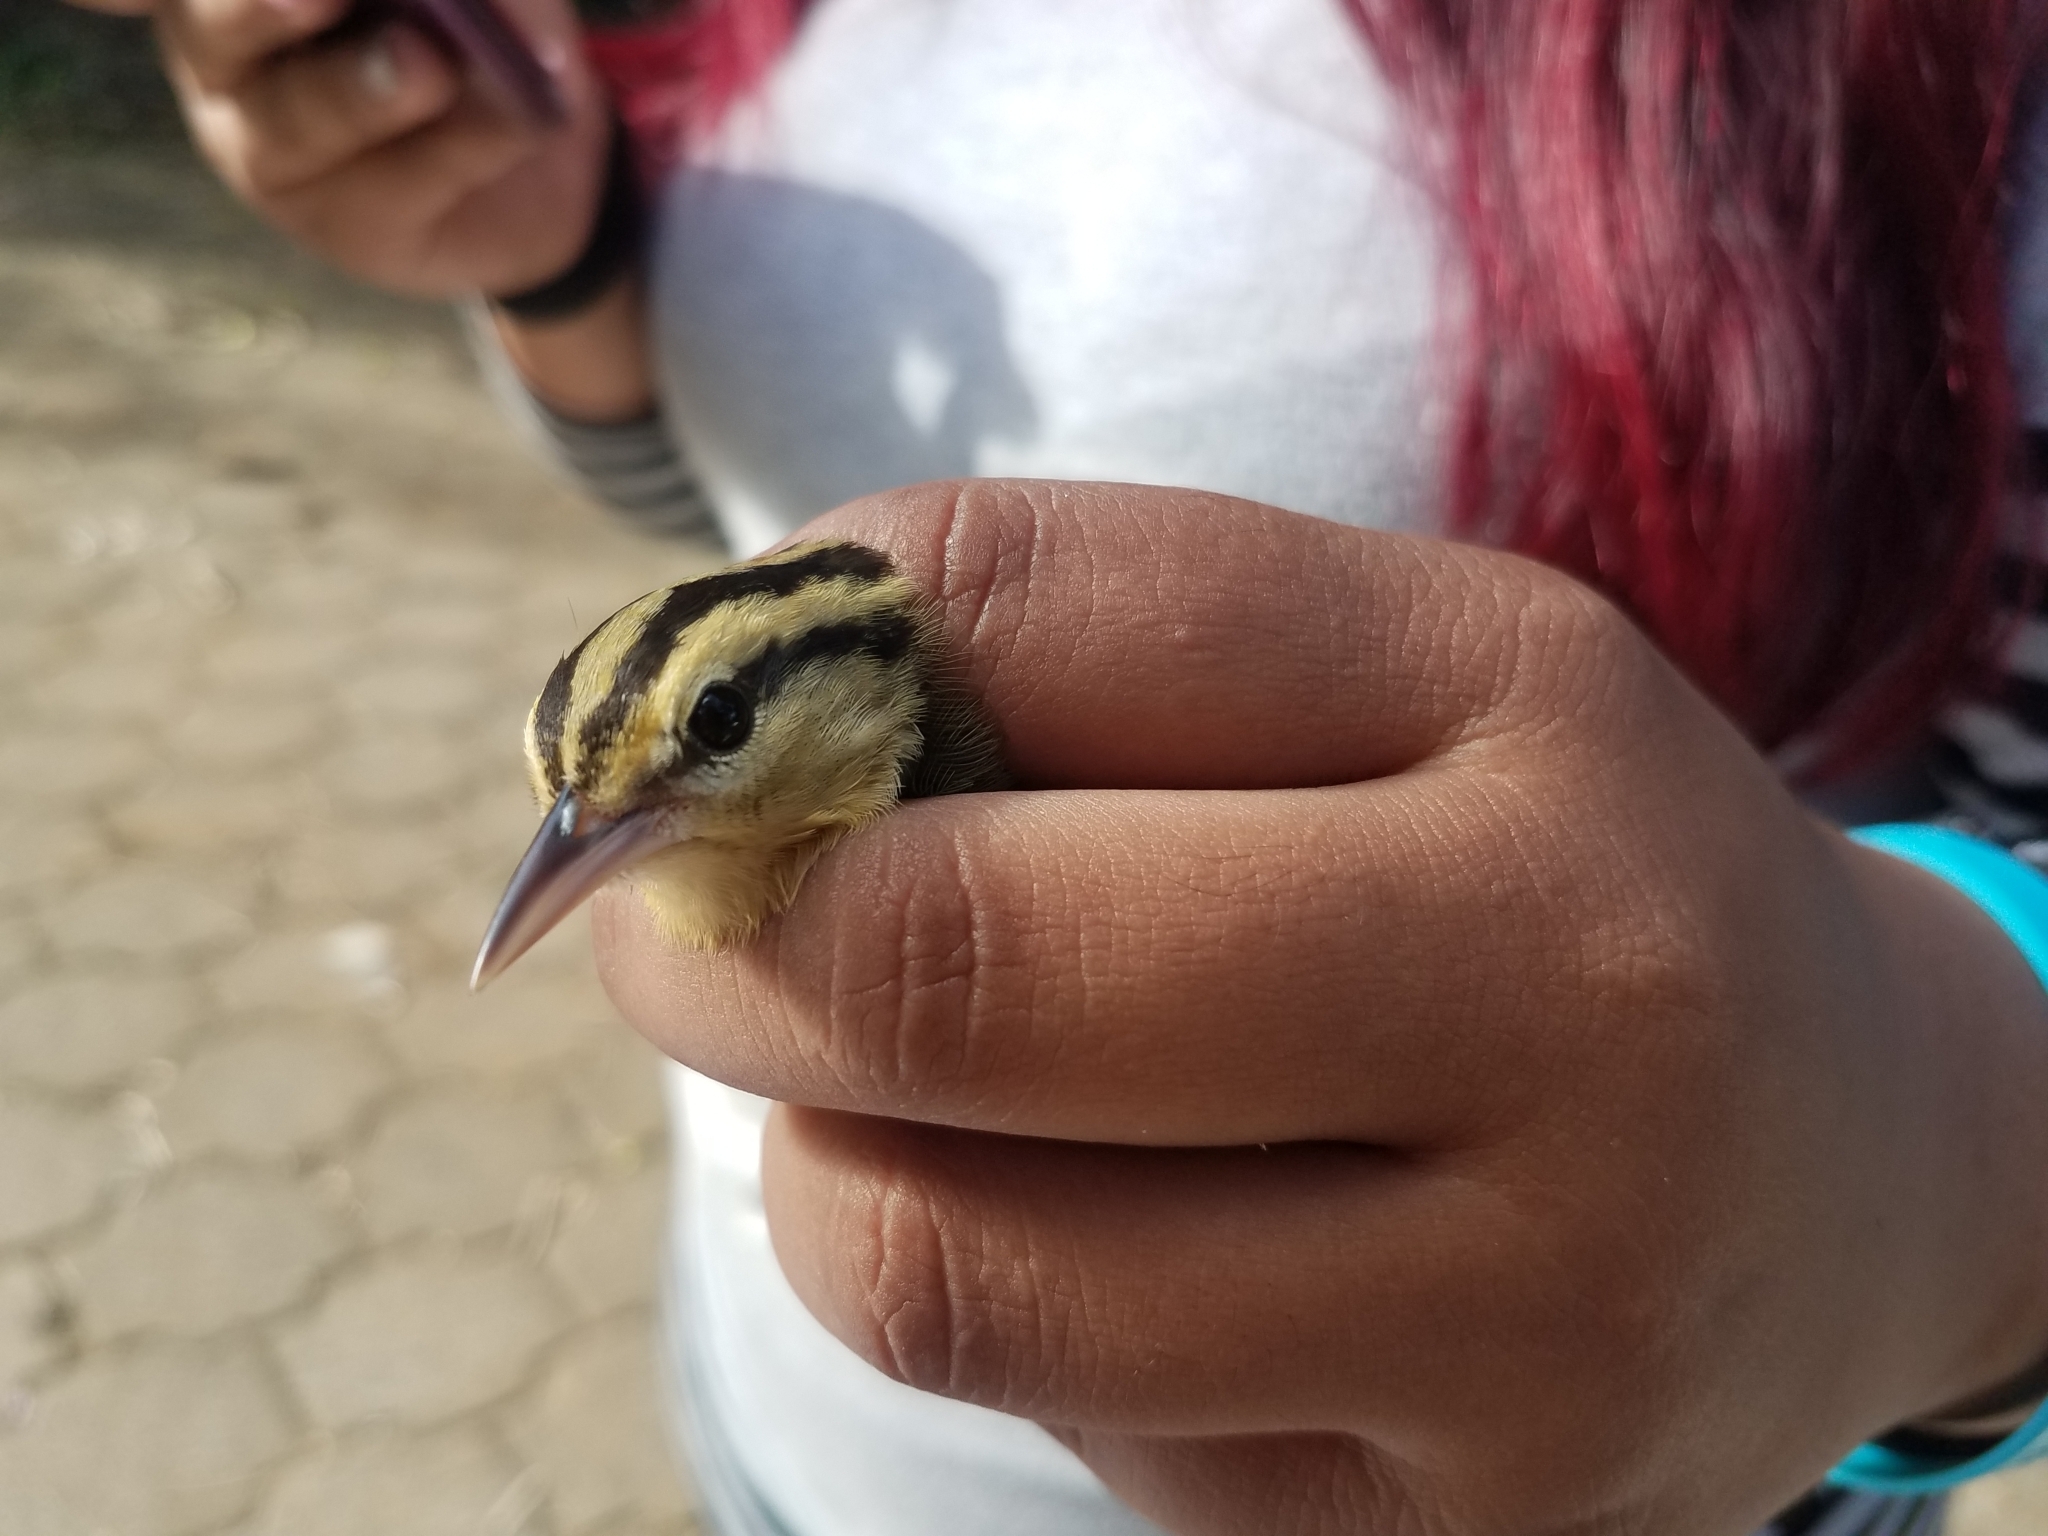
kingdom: Animalia
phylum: Chordata
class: Aves
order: Passeriformes
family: Parulidae
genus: Helmitheros
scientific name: Helmitheros vermivorum
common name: Worm-eating warbler
